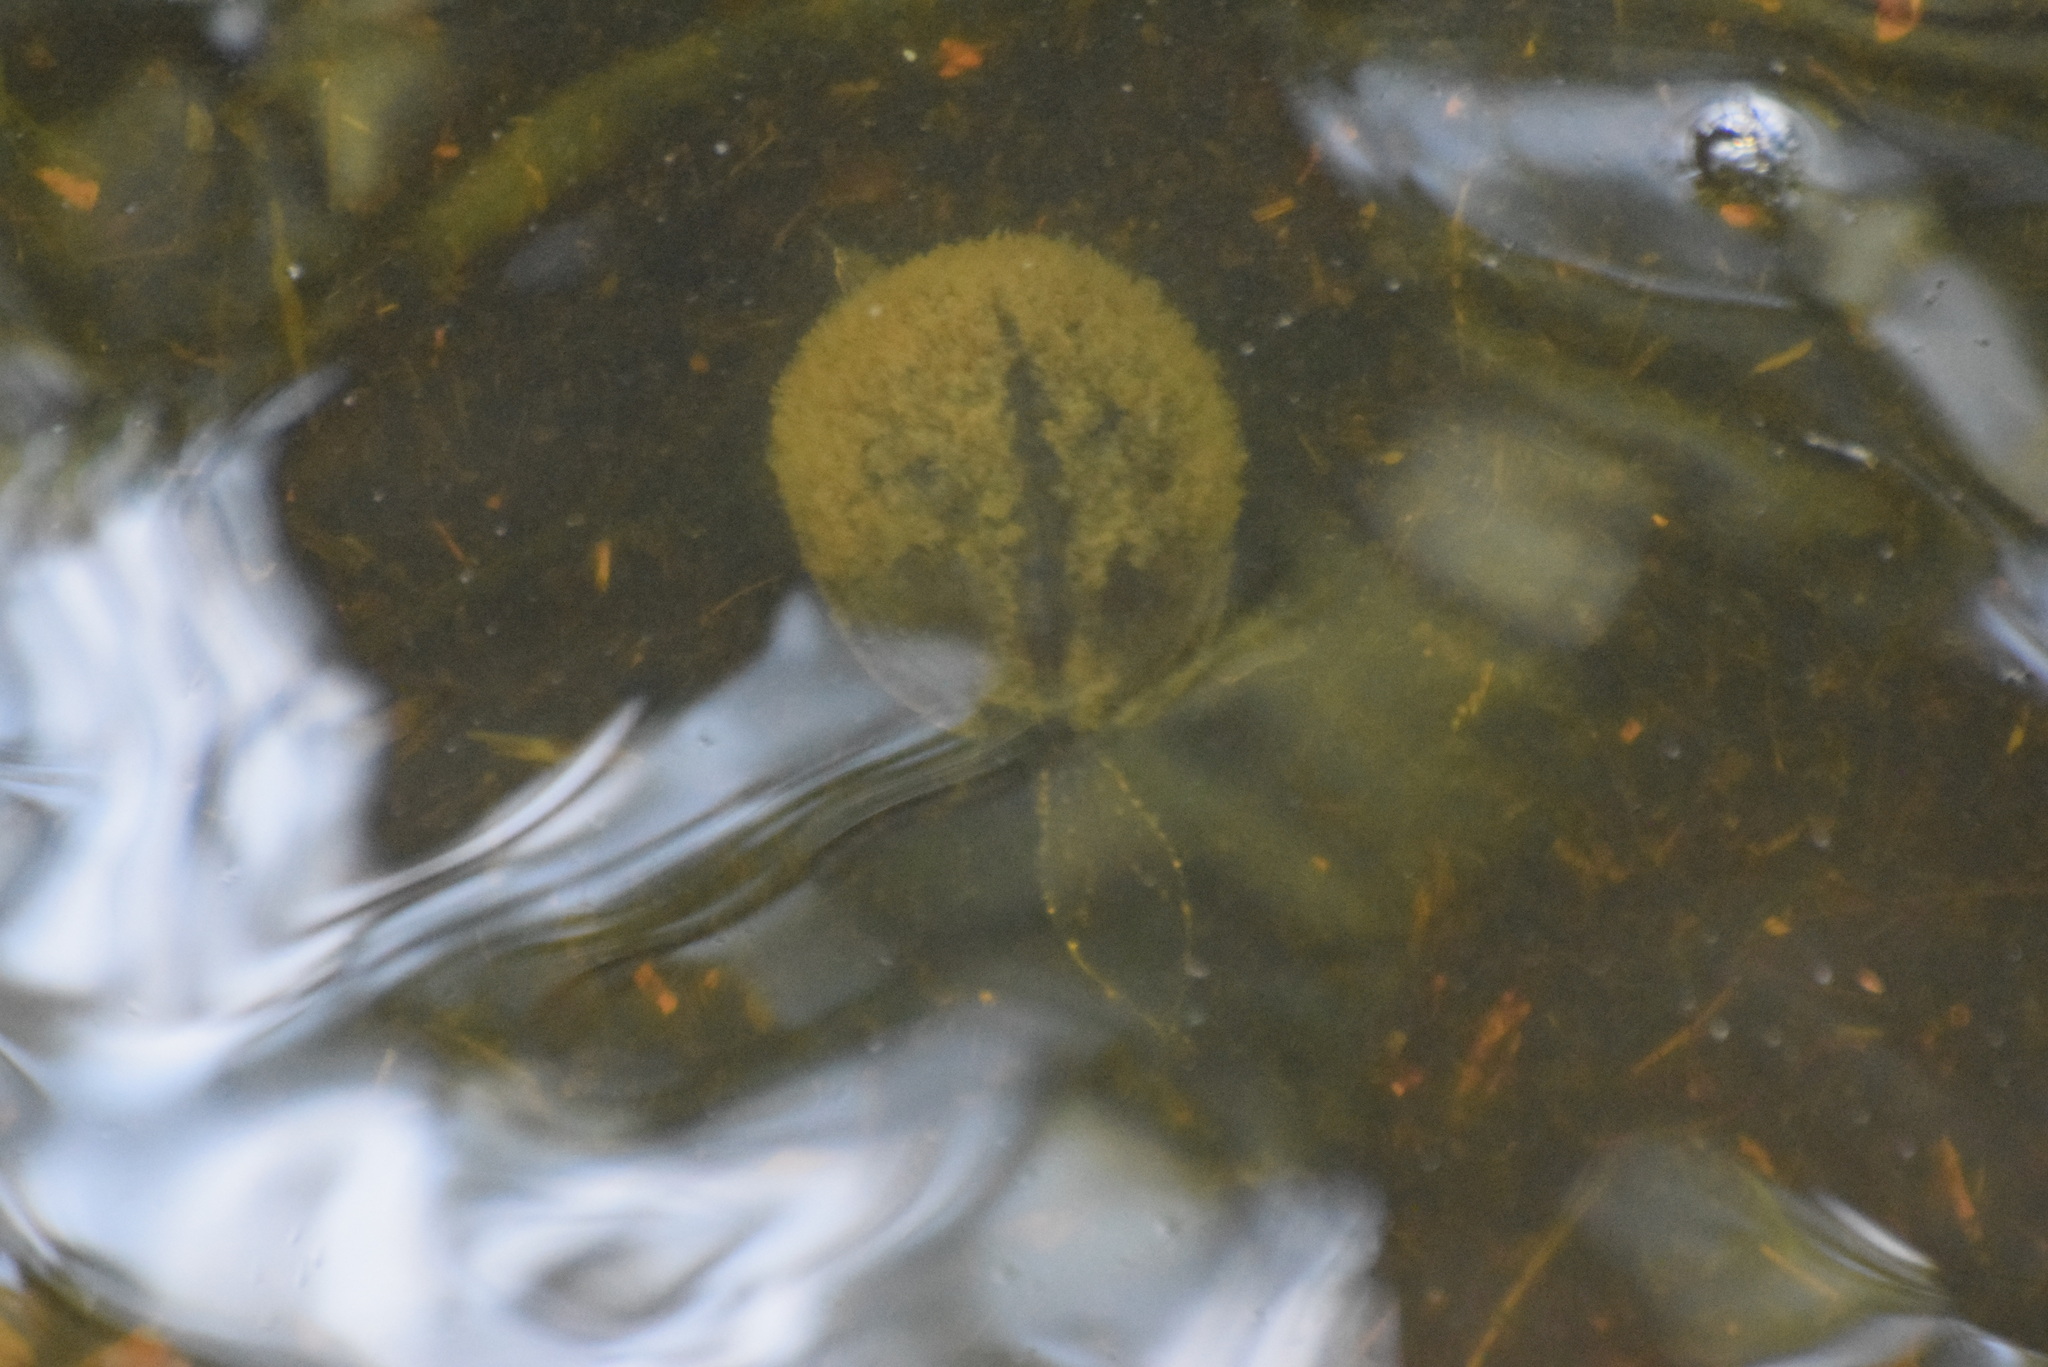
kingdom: Animalia
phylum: Chordata
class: Testudines
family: Kinosternidae
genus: Sternotherus
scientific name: Sternotherus odoratus
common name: Common musk turtle
